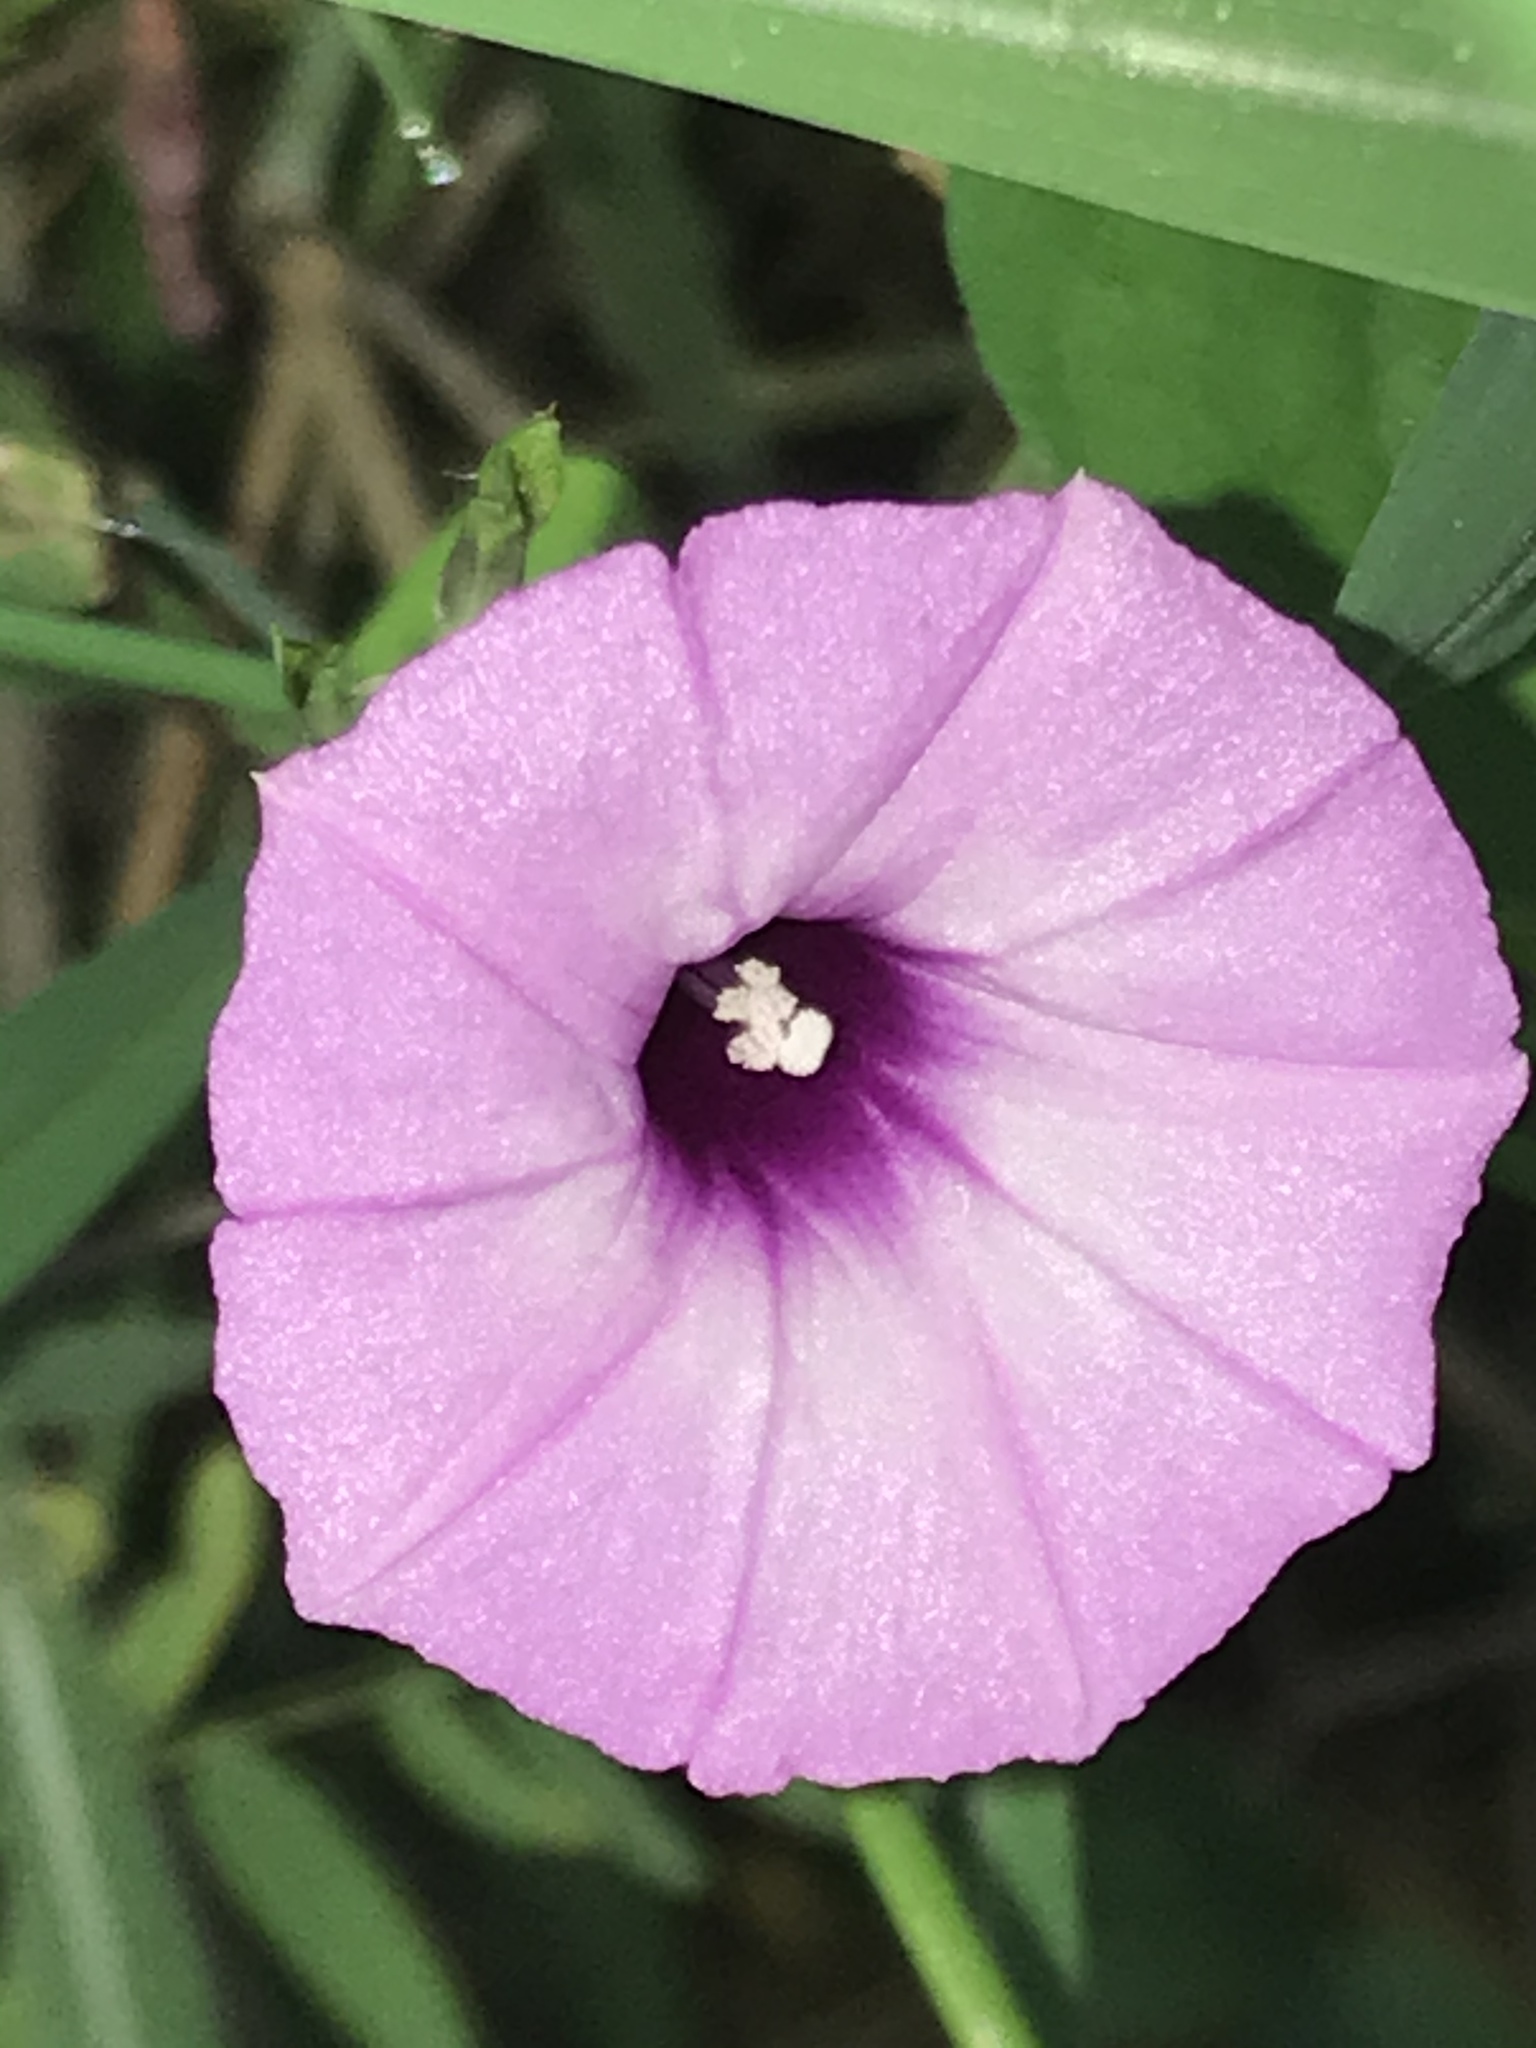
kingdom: Plantae
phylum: Tracheophyta
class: Magnoliopsida
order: Solanales
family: Convolvulaceae
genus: Ipomoea
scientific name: Ipomoea cordatotriloba
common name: Cotton morning glory
